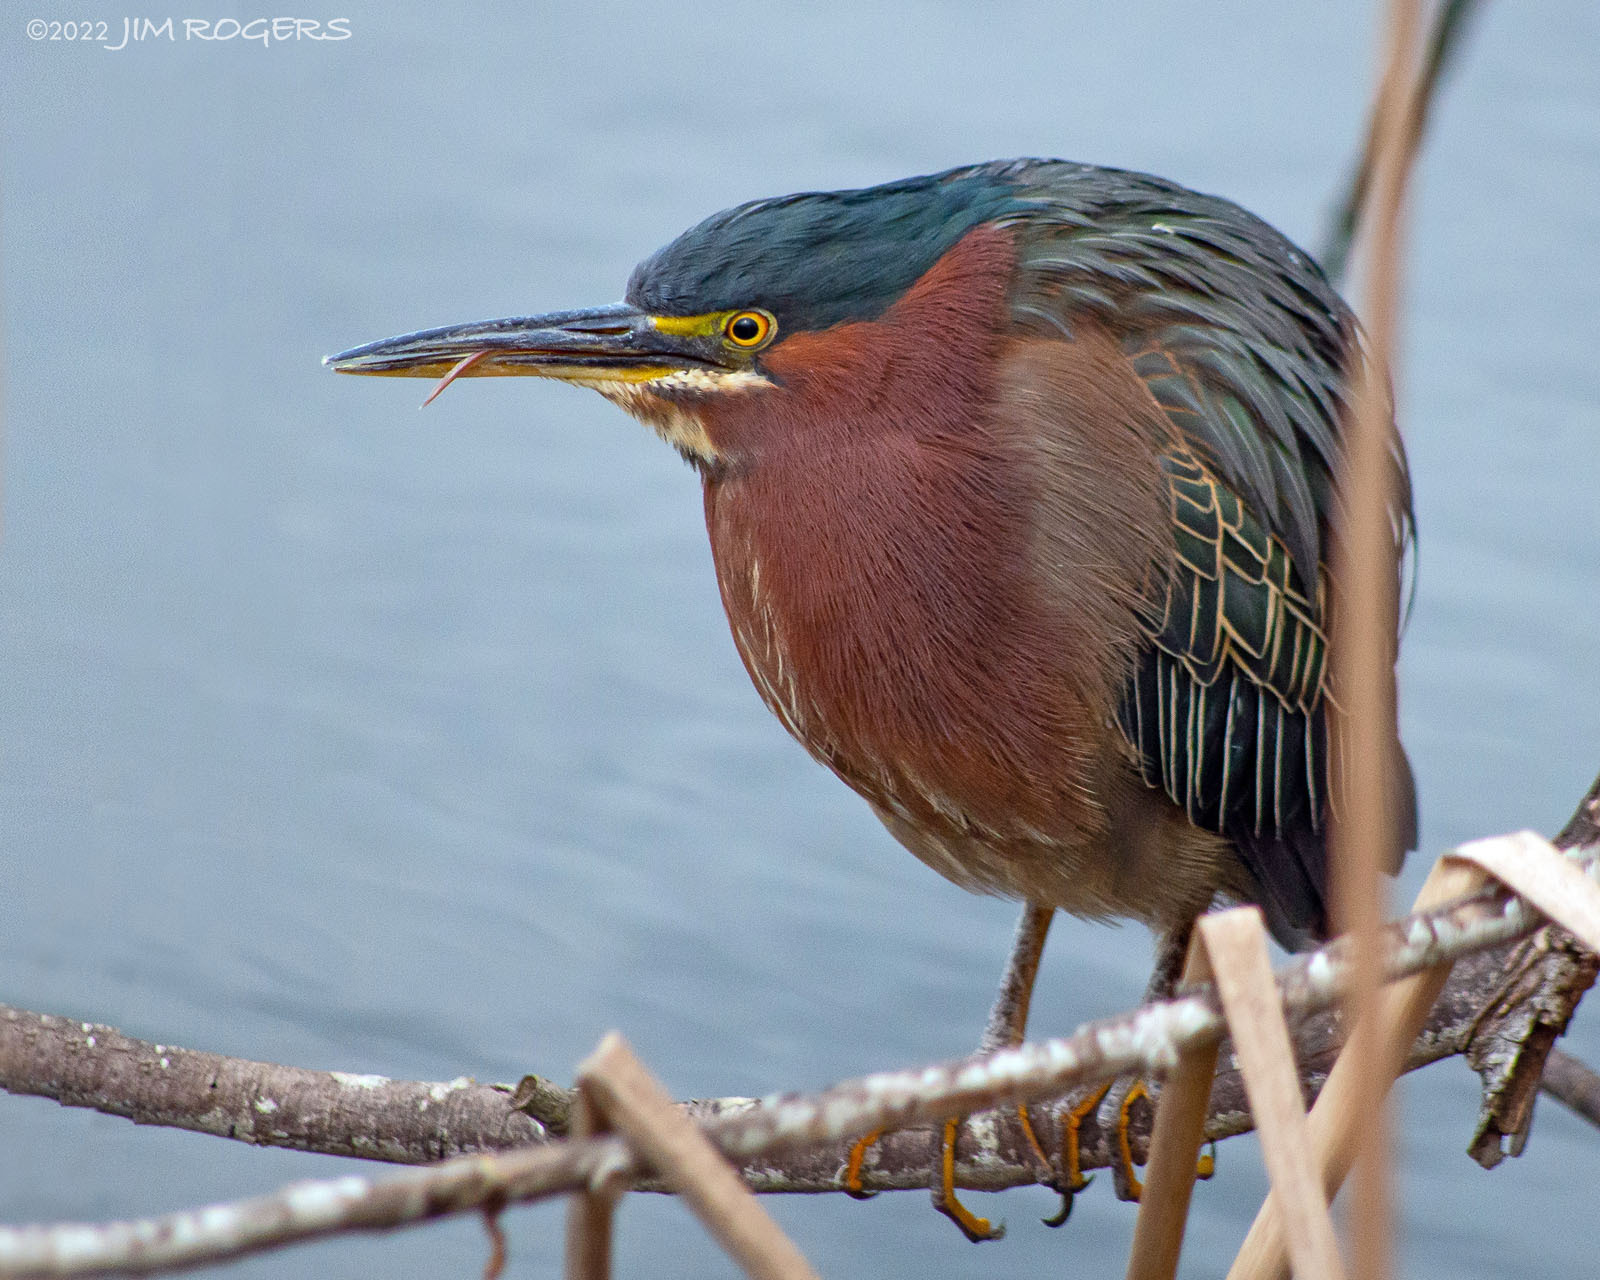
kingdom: Animalia
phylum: Chordata
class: Aves
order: Pelecaniformes
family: Ardeidae
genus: Butorides
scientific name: Butorides virescens
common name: Green heron
